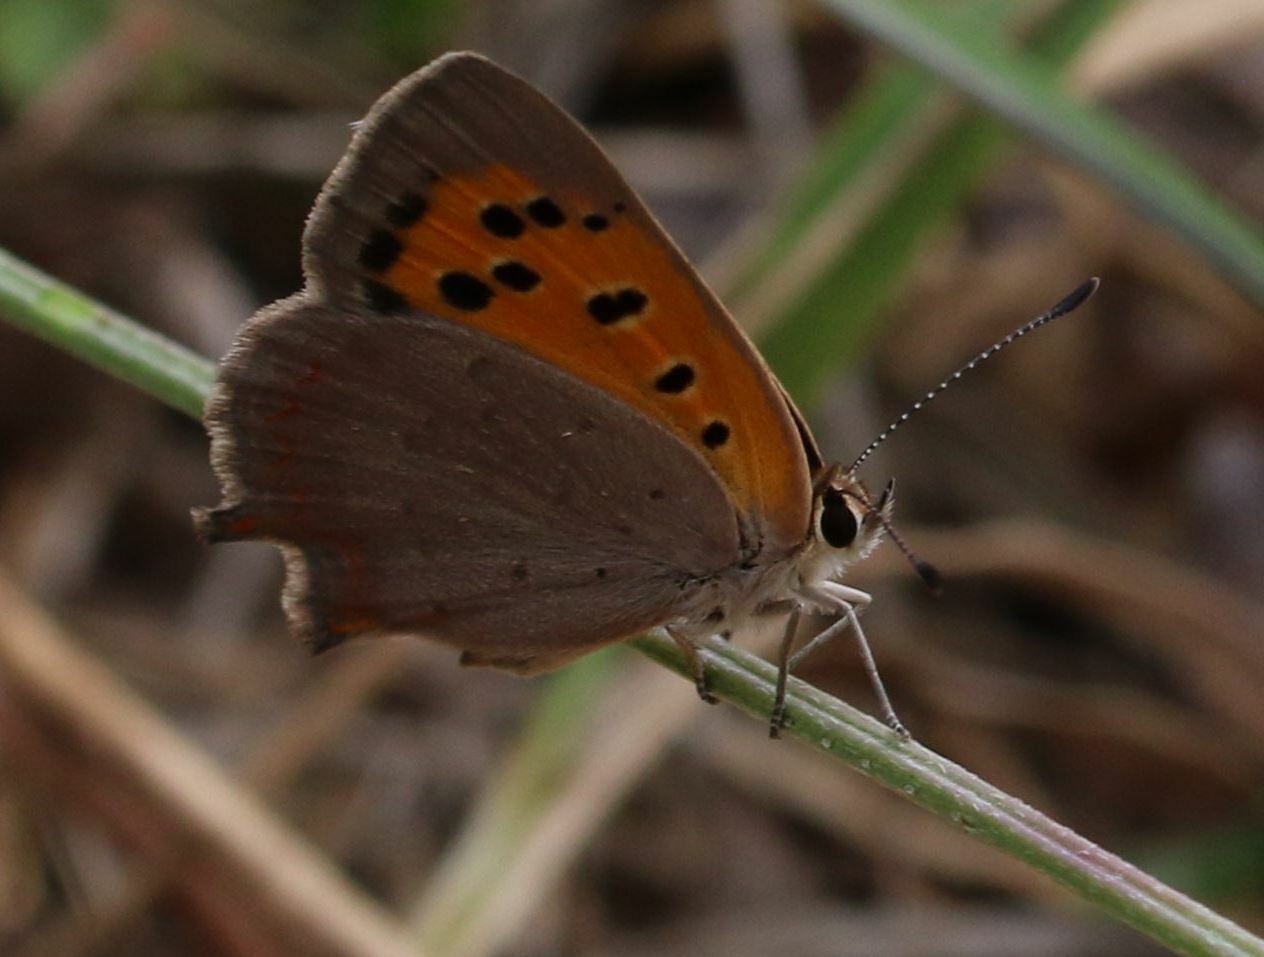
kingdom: Animalia
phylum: Arthropoda
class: Insecta
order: Lepidoptera
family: Lycaenidae
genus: Lycaena
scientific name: Lycaena phlaeas
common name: Small copper
